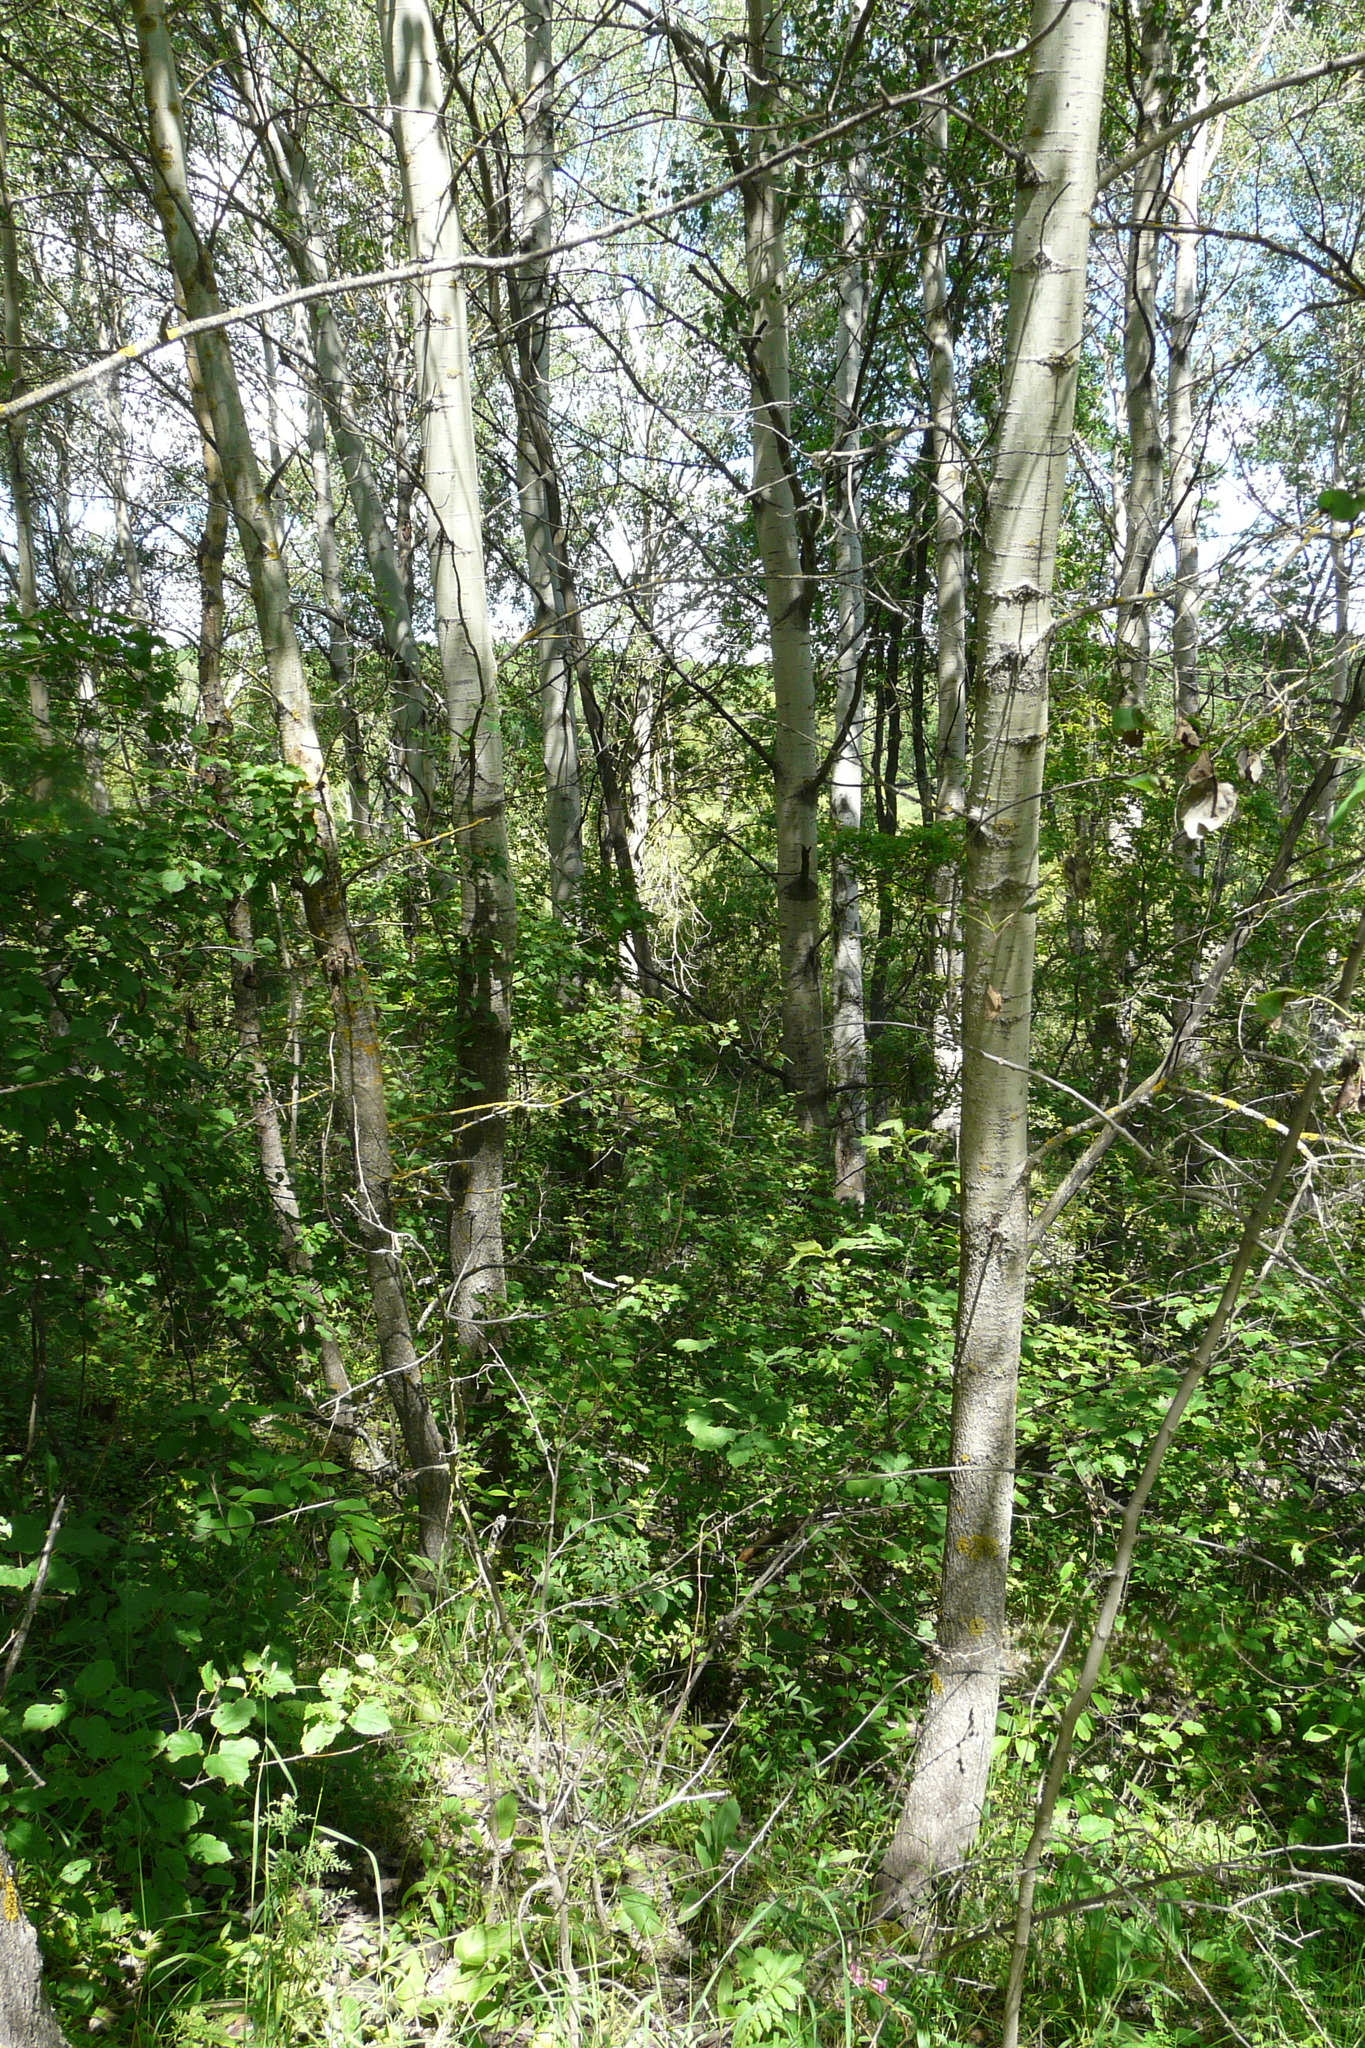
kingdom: Plantae
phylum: Tracheophyta
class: Magnoliopsida
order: Malpighiales
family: Salicaceae
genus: Populus
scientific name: Populus tremula
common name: European aspen
